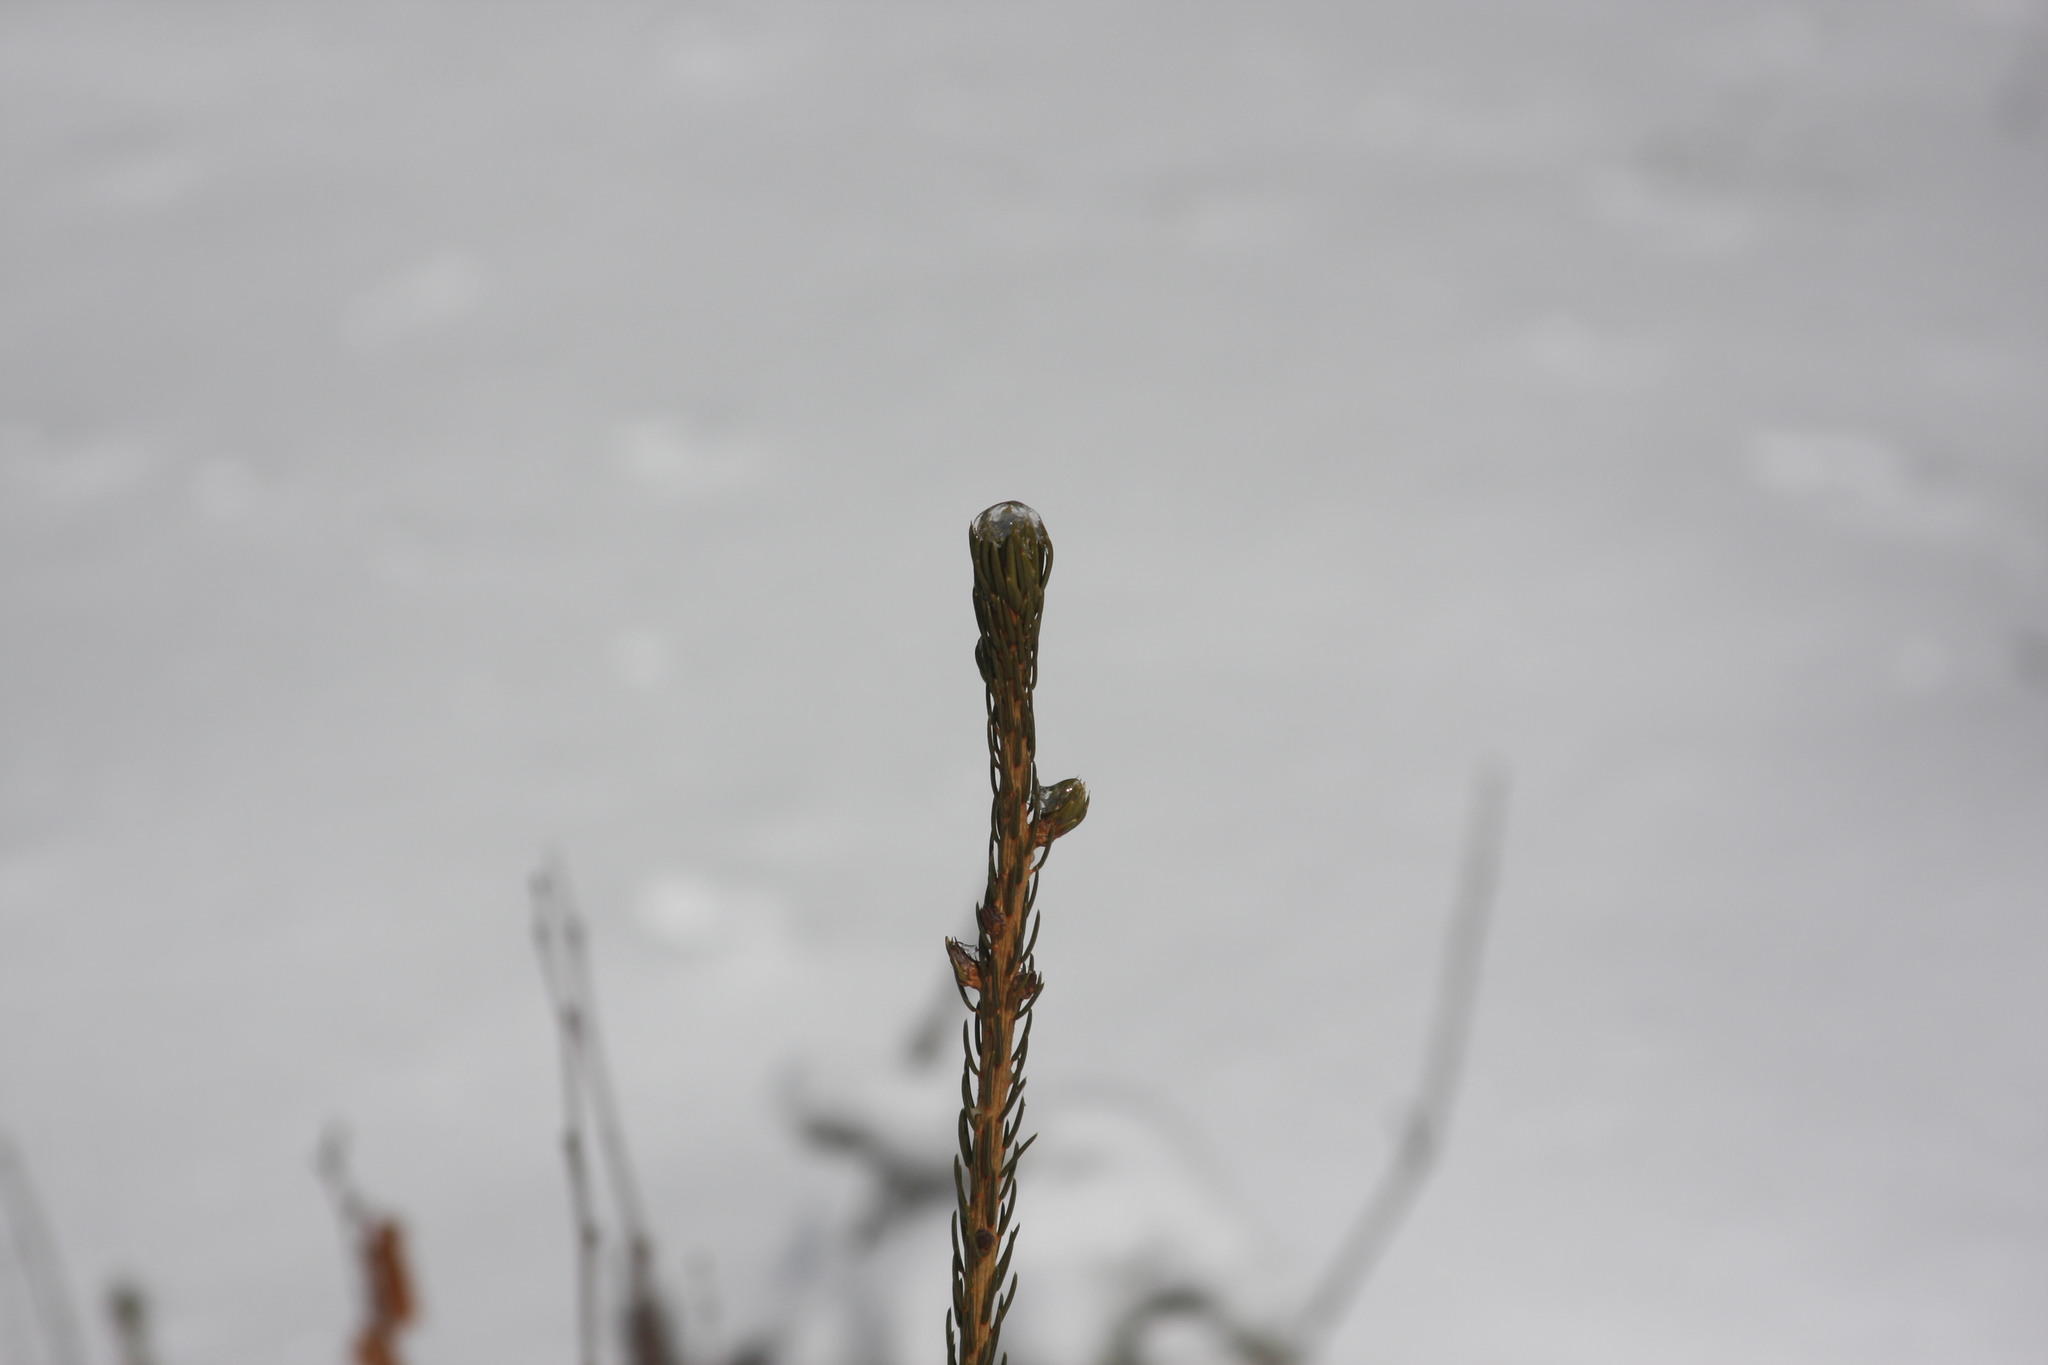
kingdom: Plantae
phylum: Tracheophyta
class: Pinopsida
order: Pinales
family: Pinaceae
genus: Picea
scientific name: Picea rubens
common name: Red spruce
